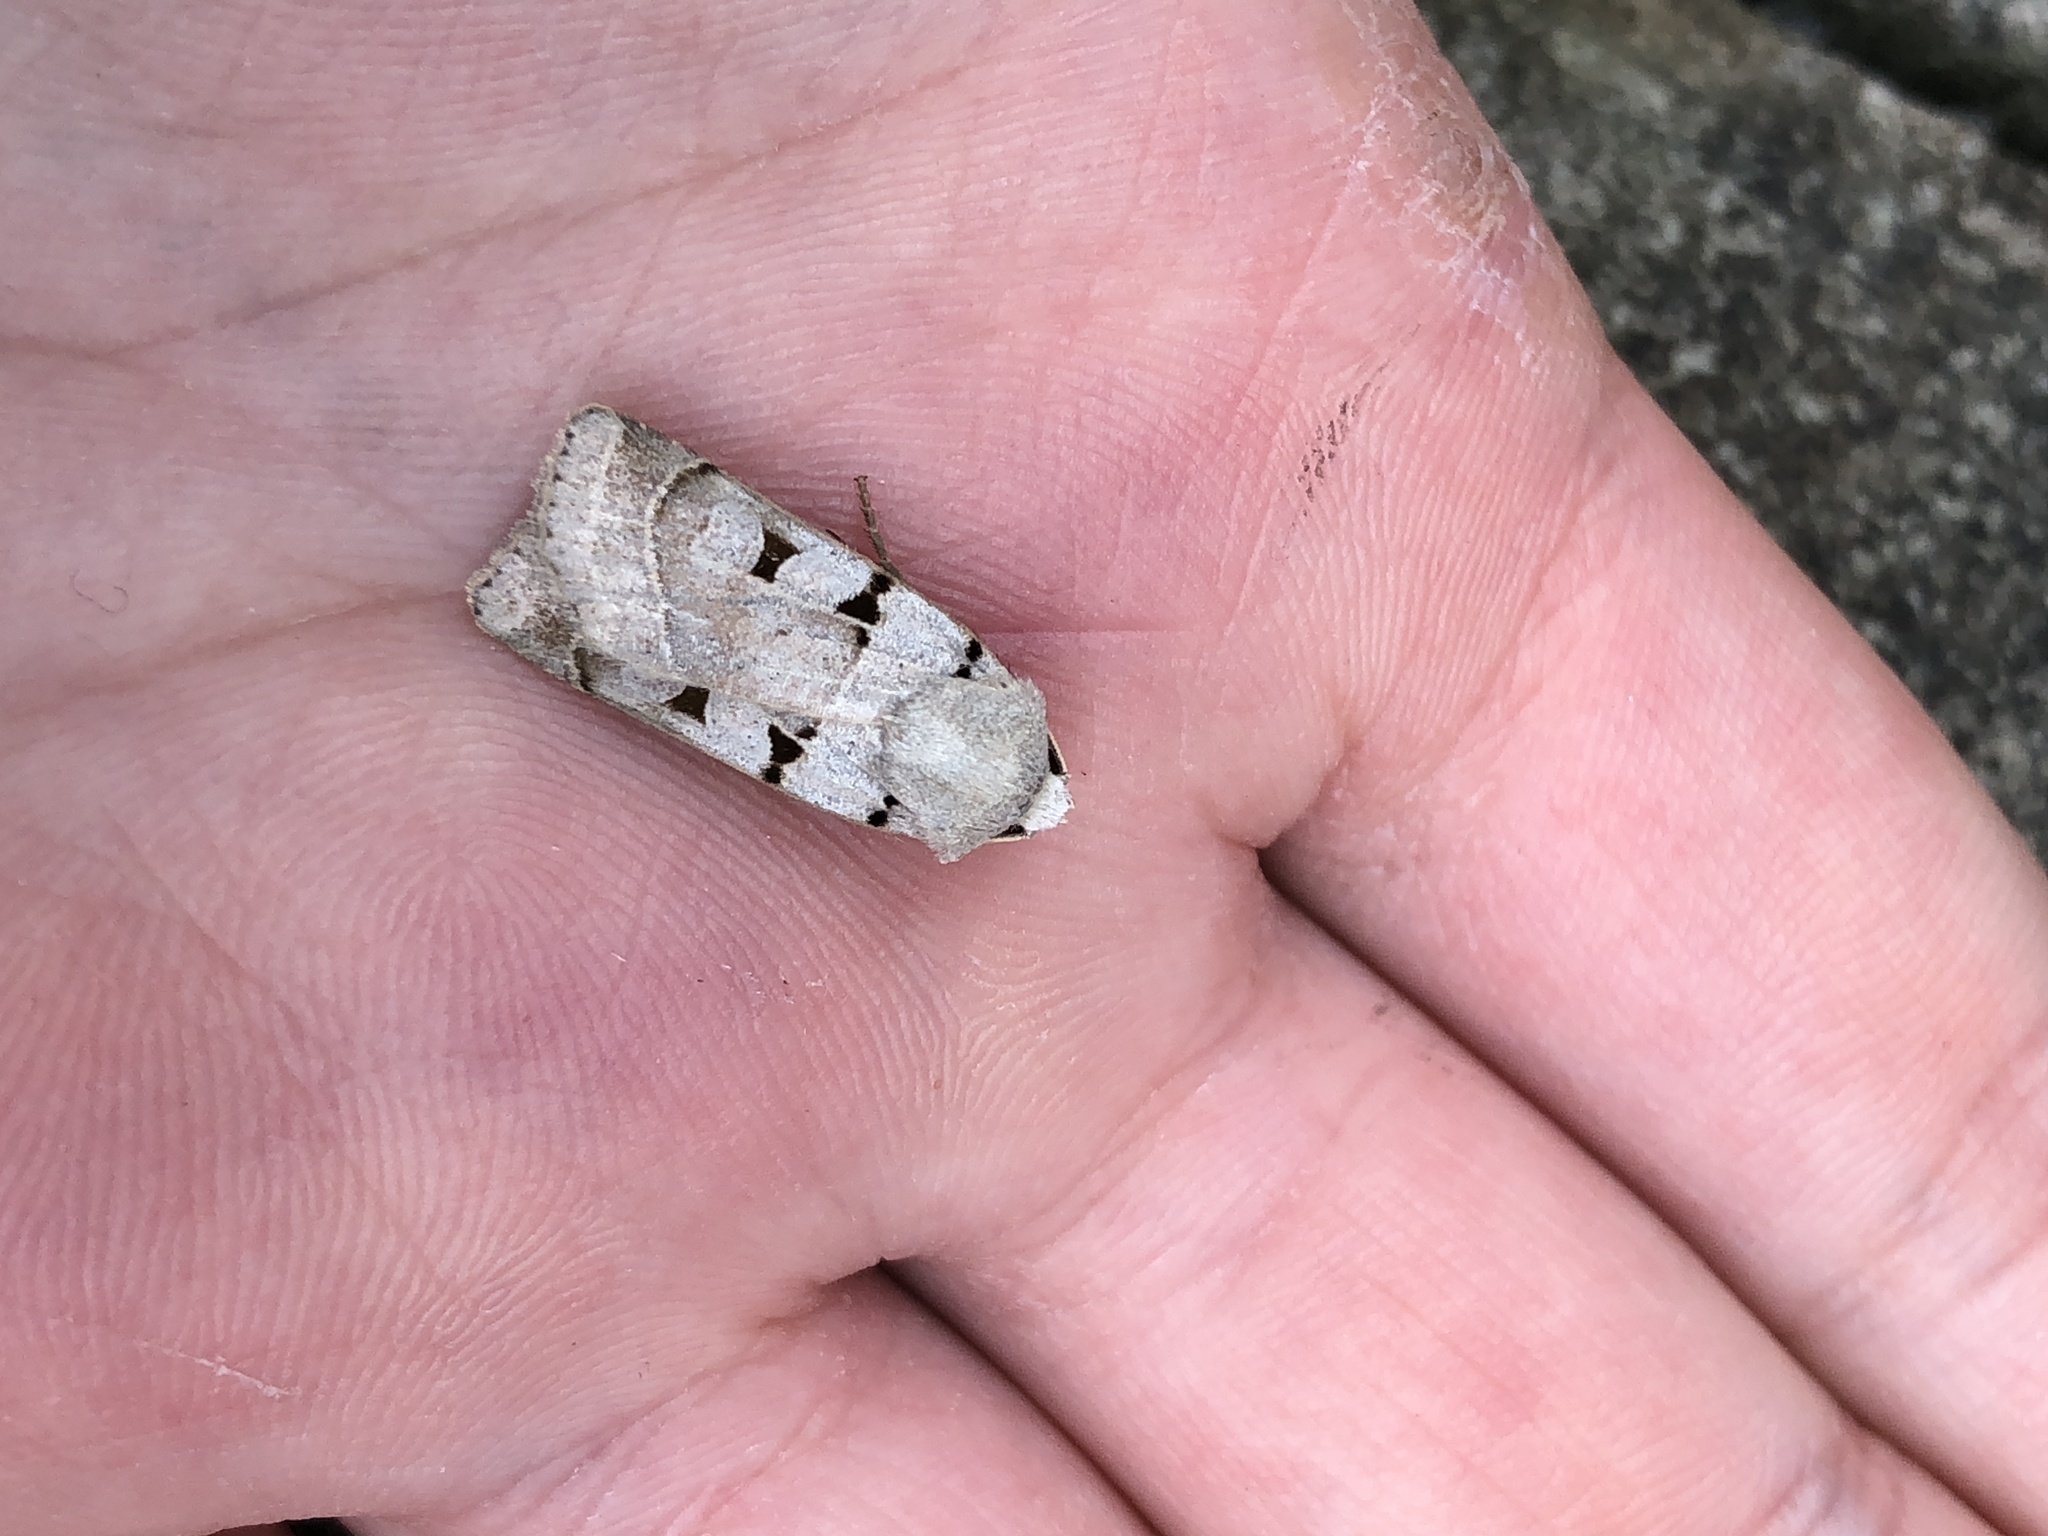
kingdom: Animalia
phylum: Arthropoda
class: Insecta
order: Lepidoptera
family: Noctuidae
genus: Eugnorisma
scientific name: Eugnorisma glareosa
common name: Autumnal rustic
